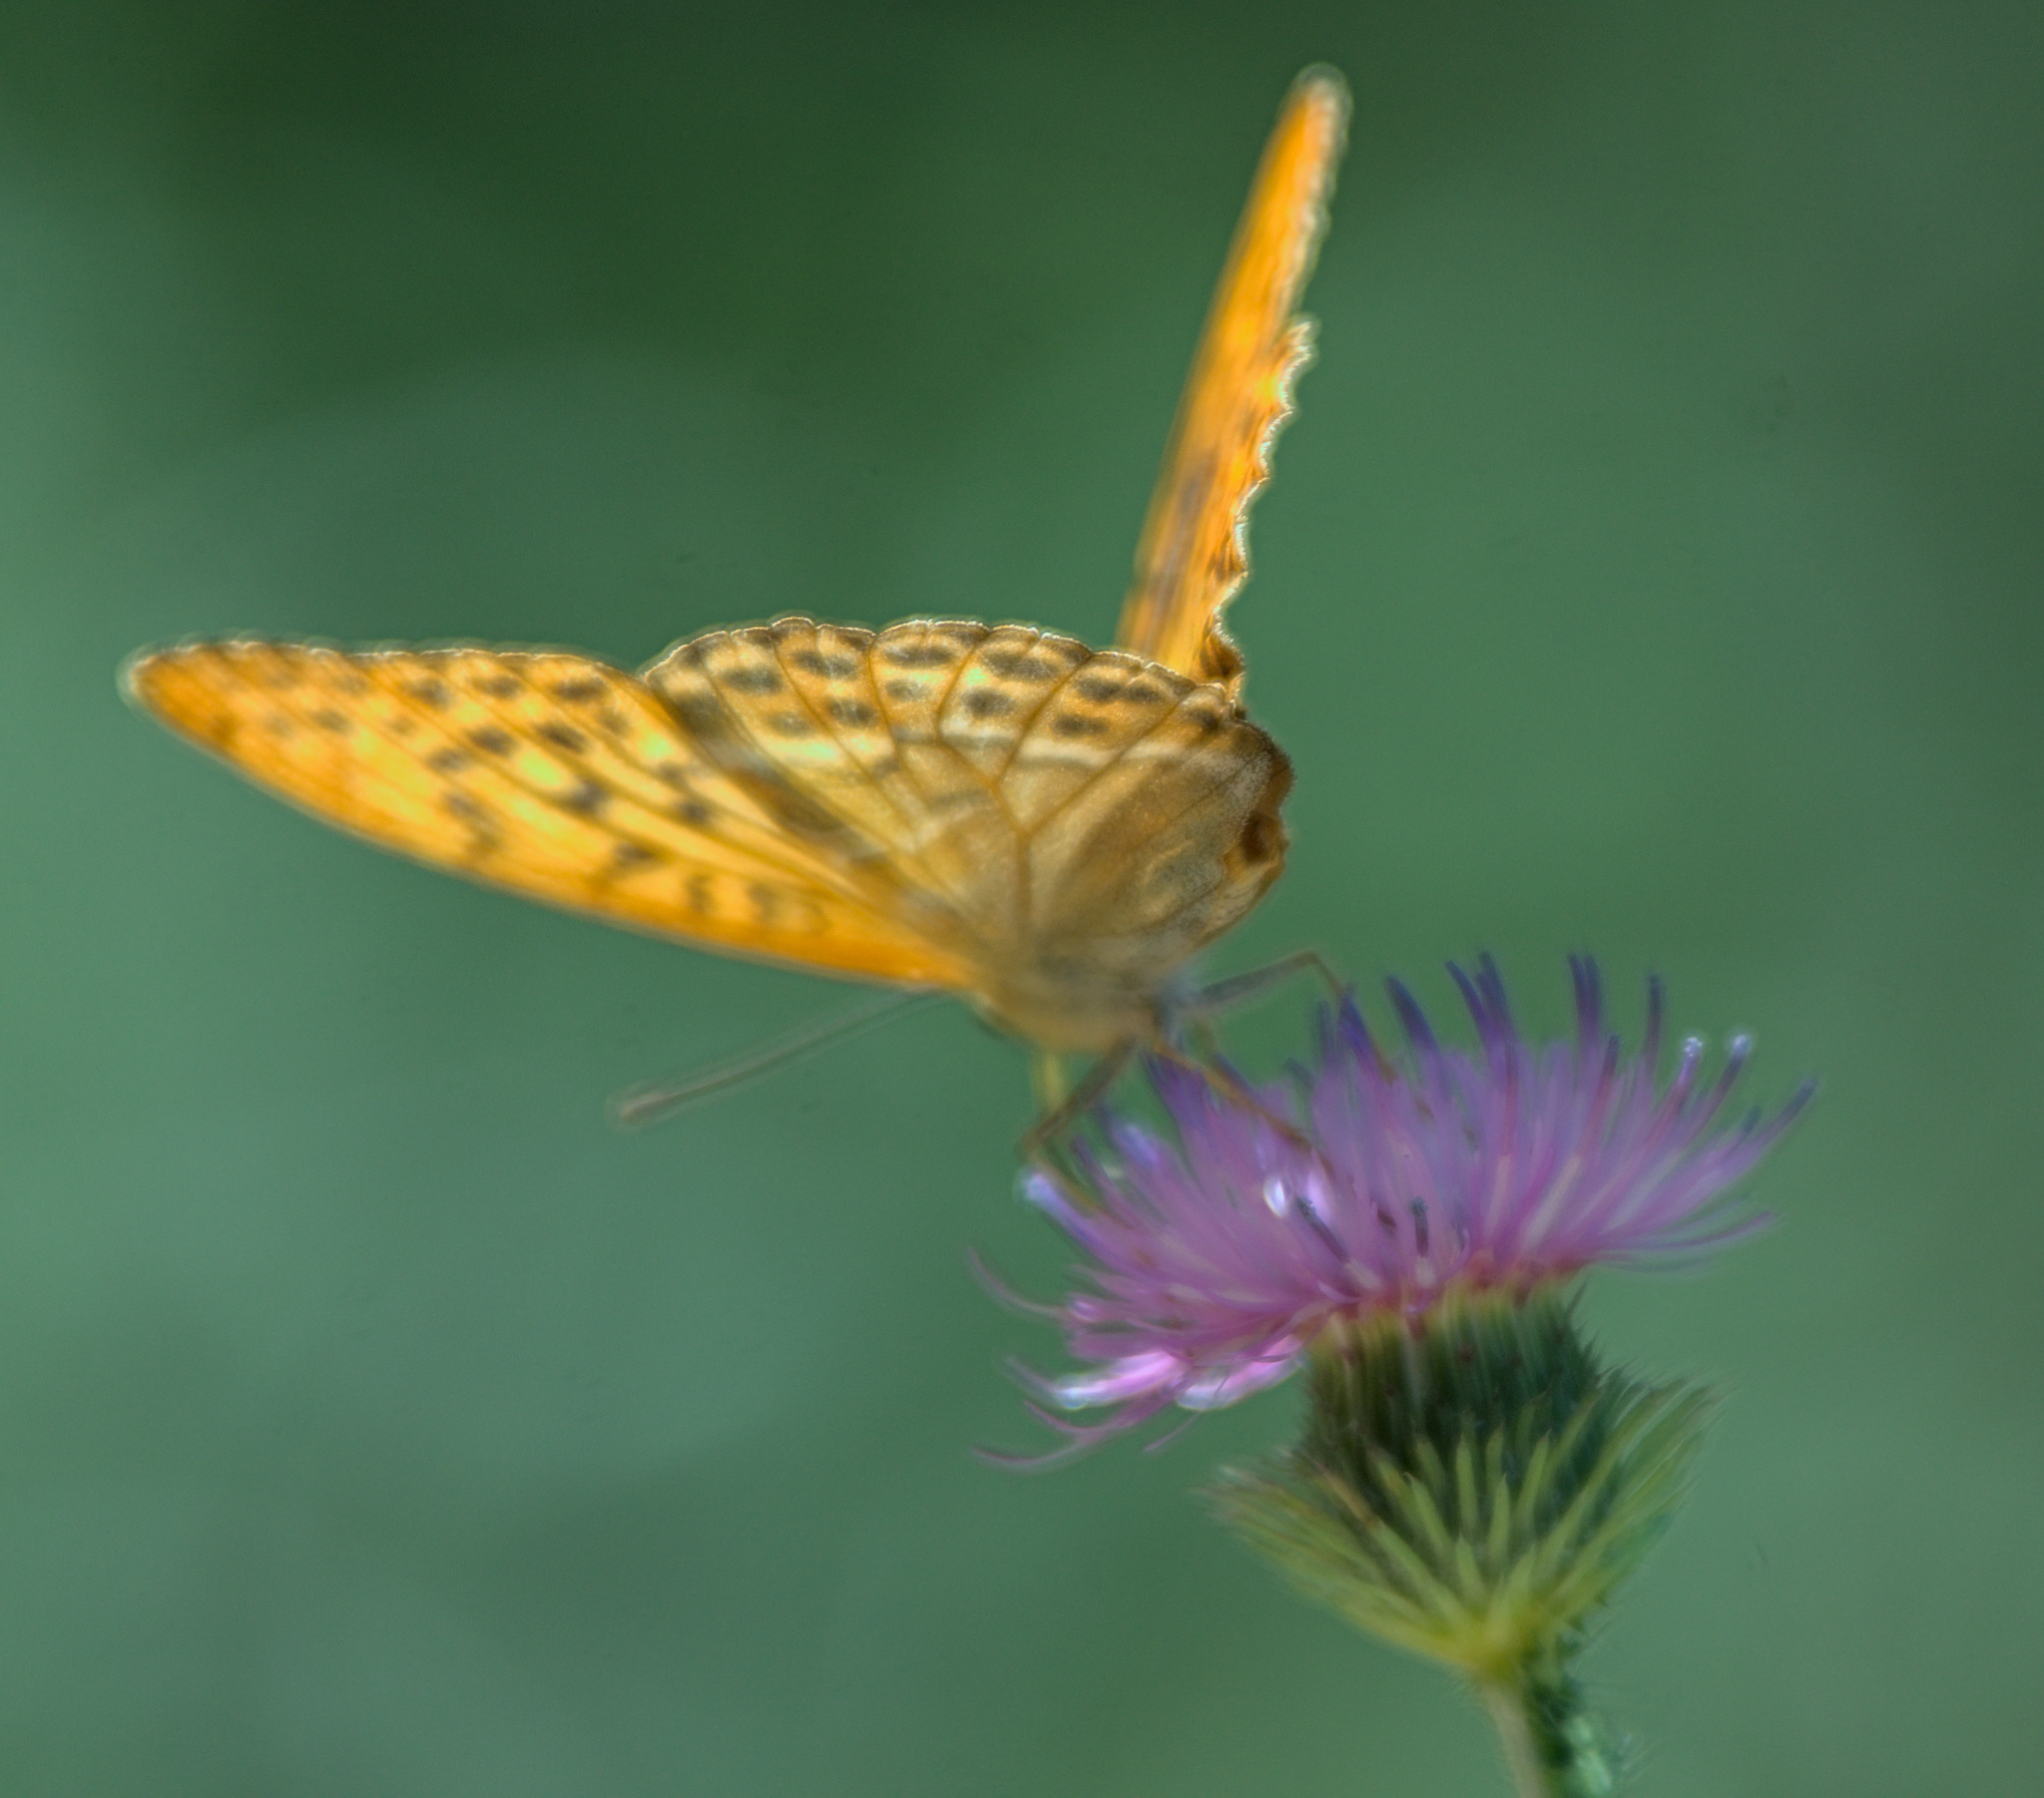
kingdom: Animalia
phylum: Arthropoda
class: Insecta
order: Lepidoptera
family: Nymphalidae
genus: Argynnis
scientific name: Argynnis paphia
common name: Silver-washed fritillary
